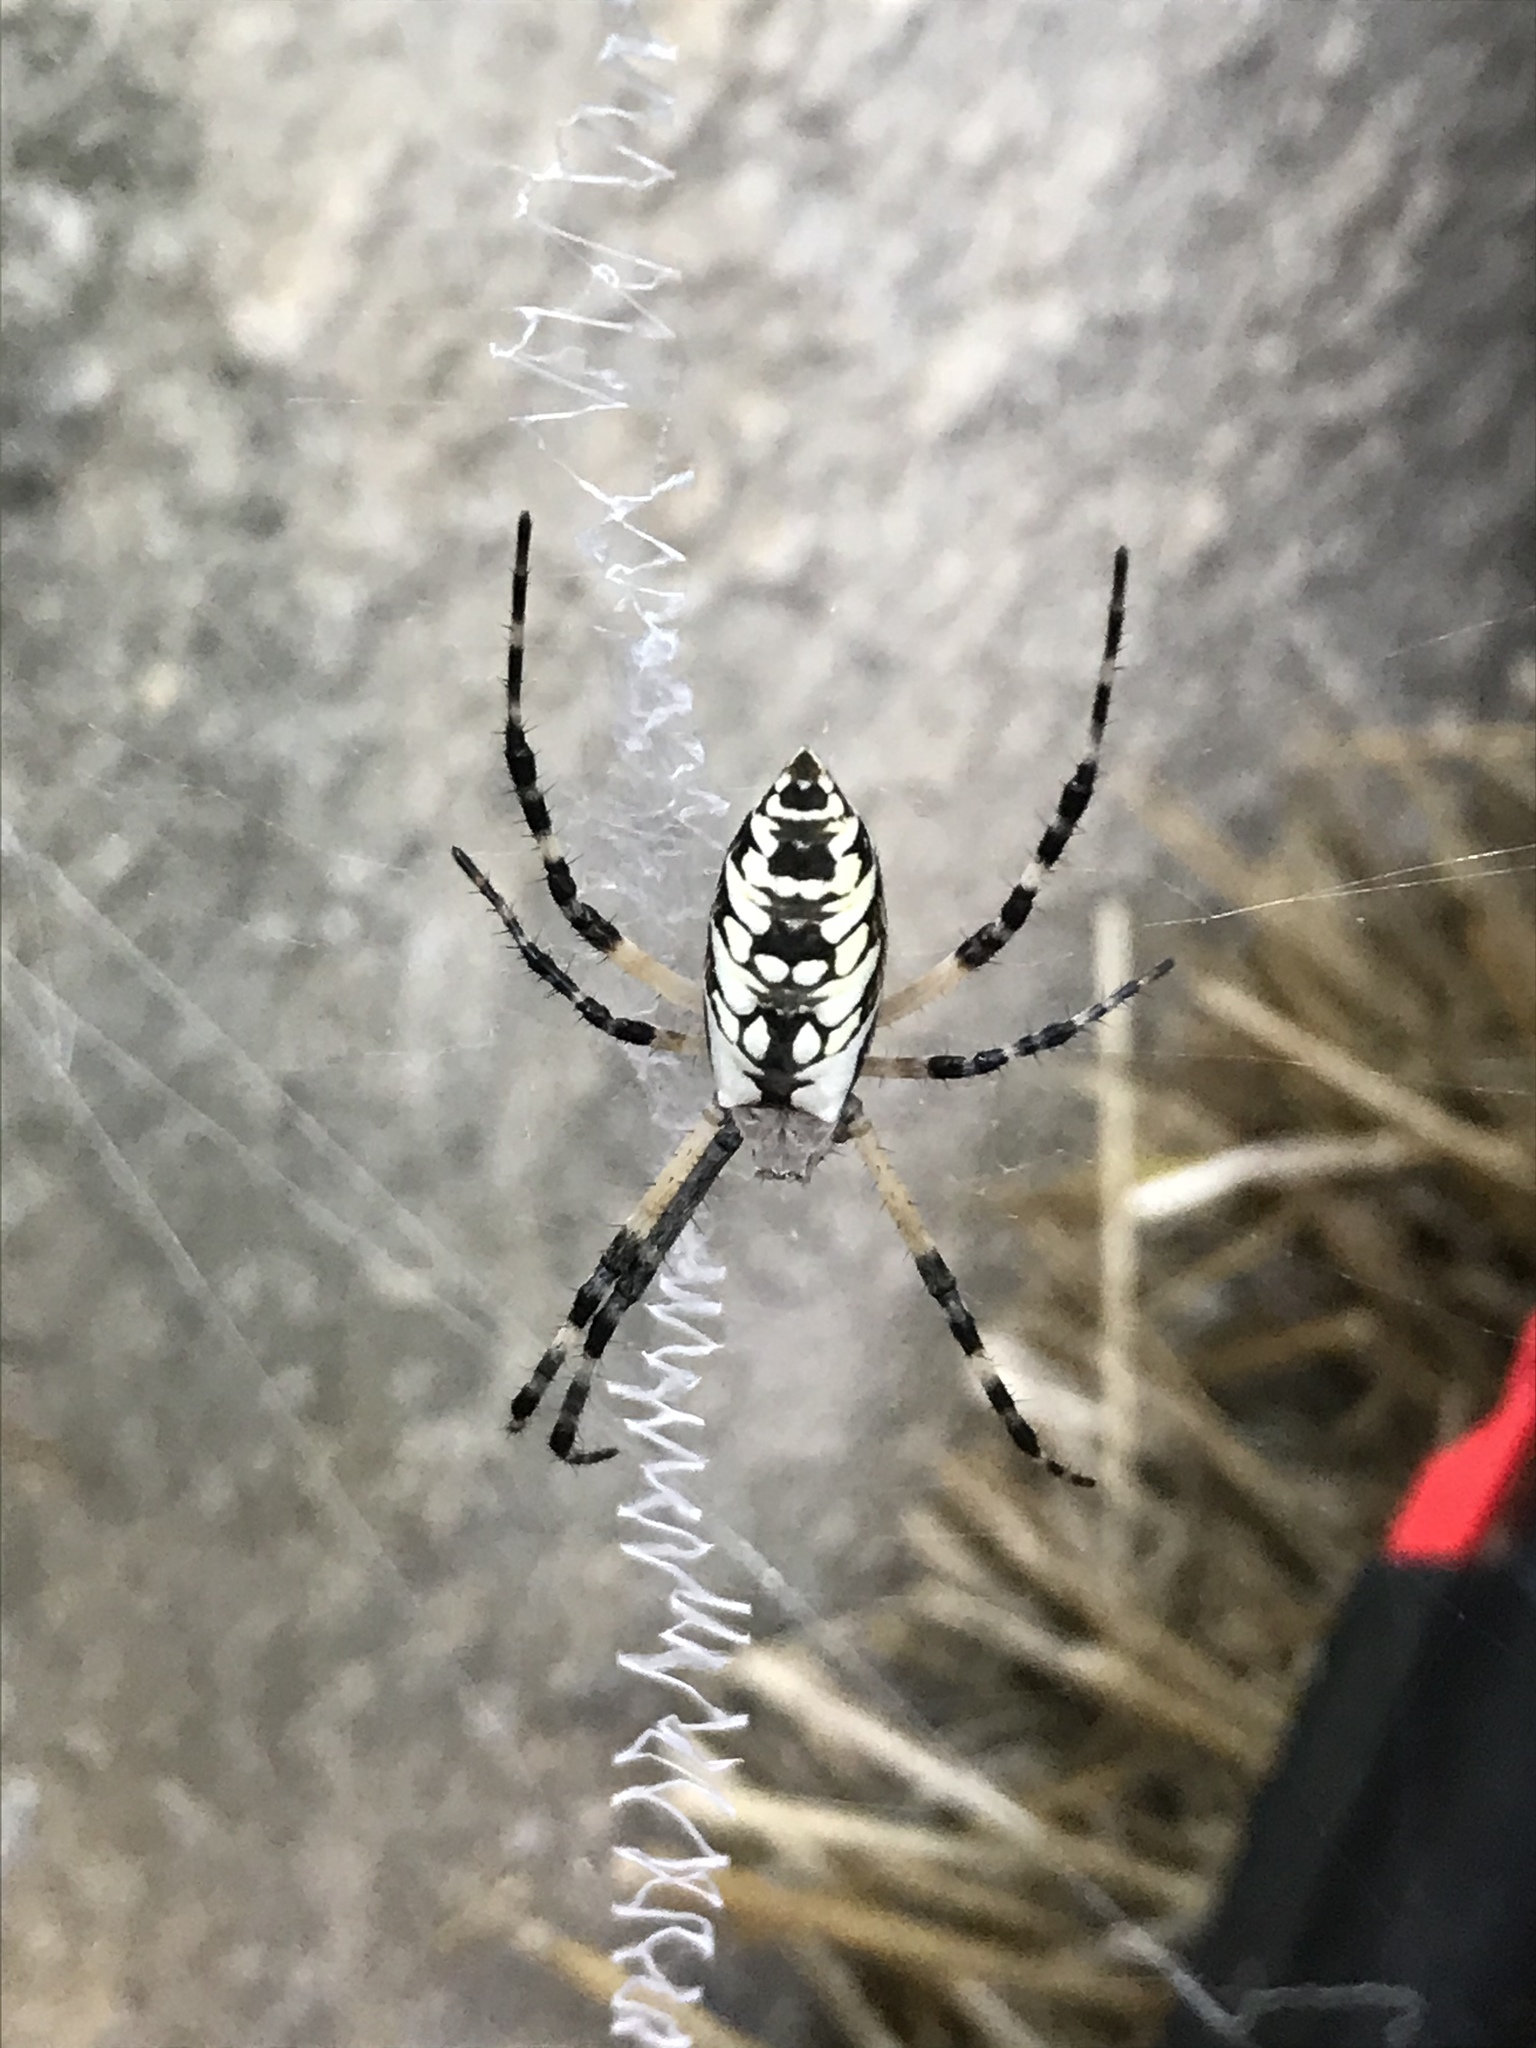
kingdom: Animalia
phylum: Arthropoda
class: Arachnida
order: Araneae
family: Araneidae
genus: Argiope
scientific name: Argiope aurantia
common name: Orb weavers
